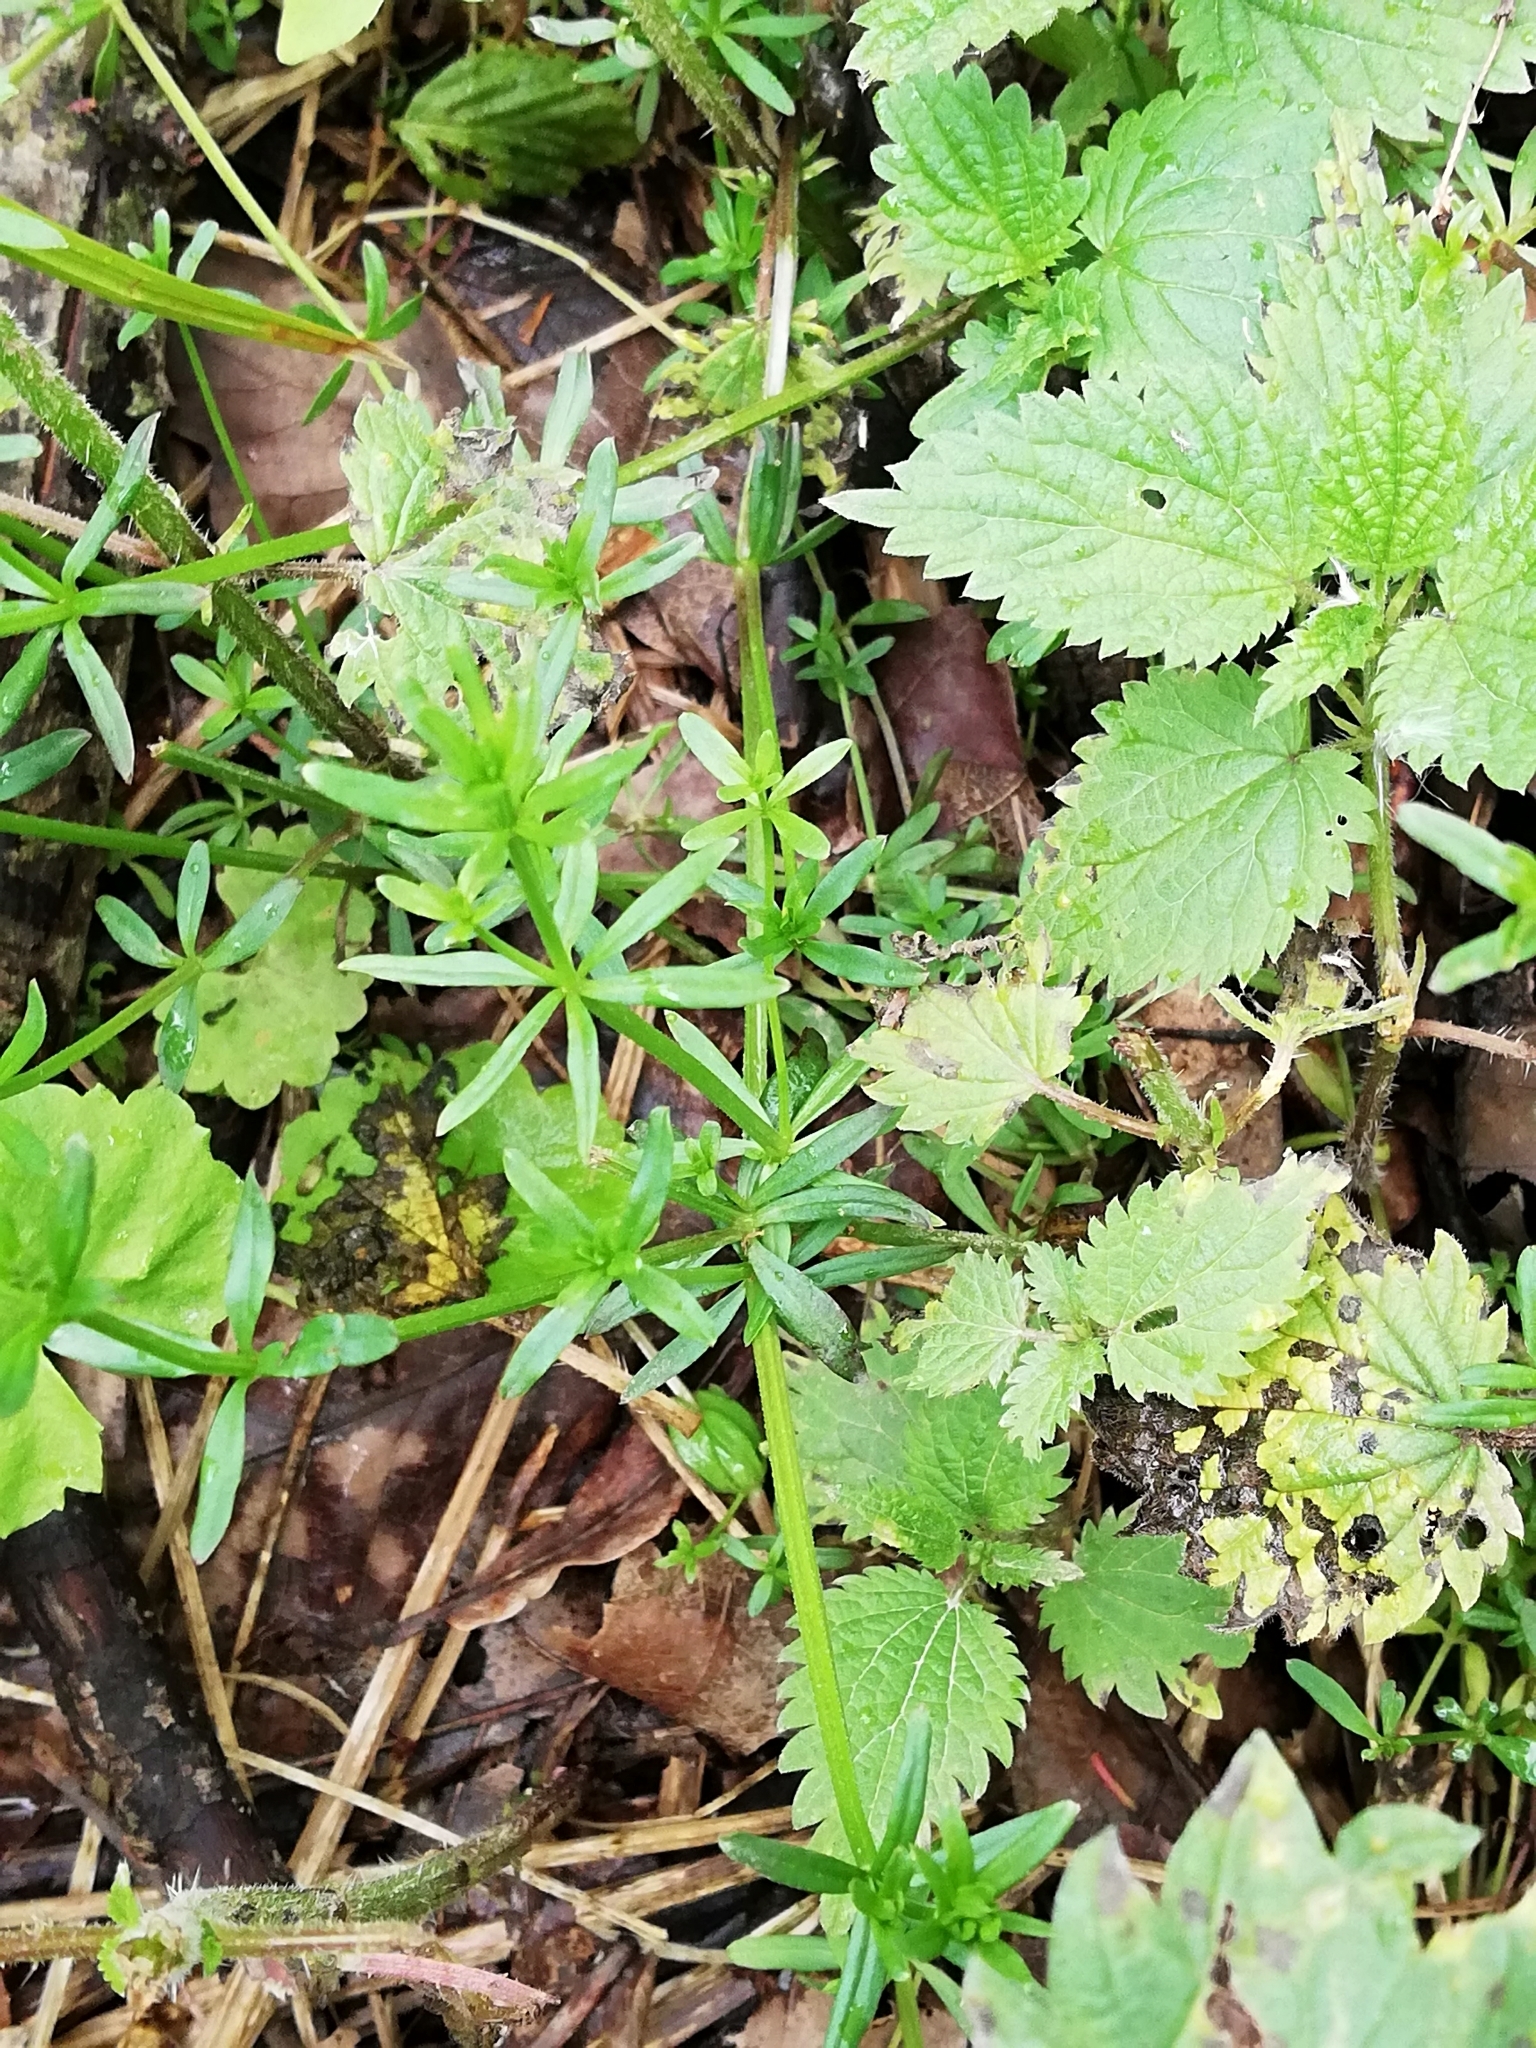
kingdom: Plantae
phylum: Tracheophyta
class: Magnoliopsida
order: Gentianales
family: Rubiaceae
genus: Galium
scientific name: Galium mollugo
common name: Hedge bedstraw
